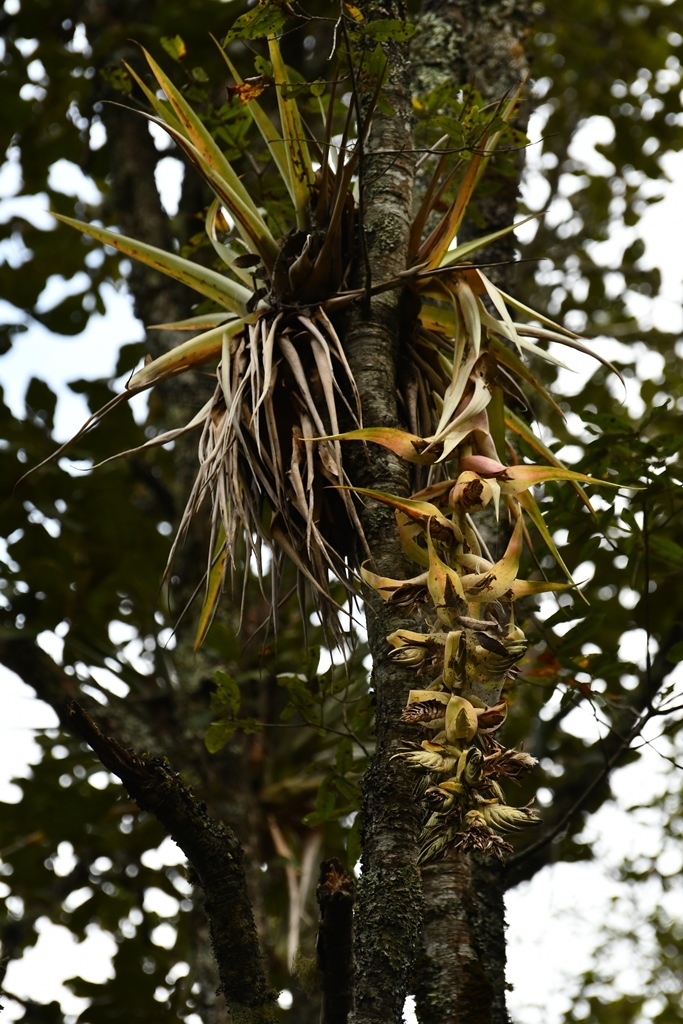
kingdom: Plantae
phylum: Tracheophyta
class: Liliopsida
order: Poales
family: Bromeliaceae
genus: Tillandsia
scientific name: Tillandsia eizii
